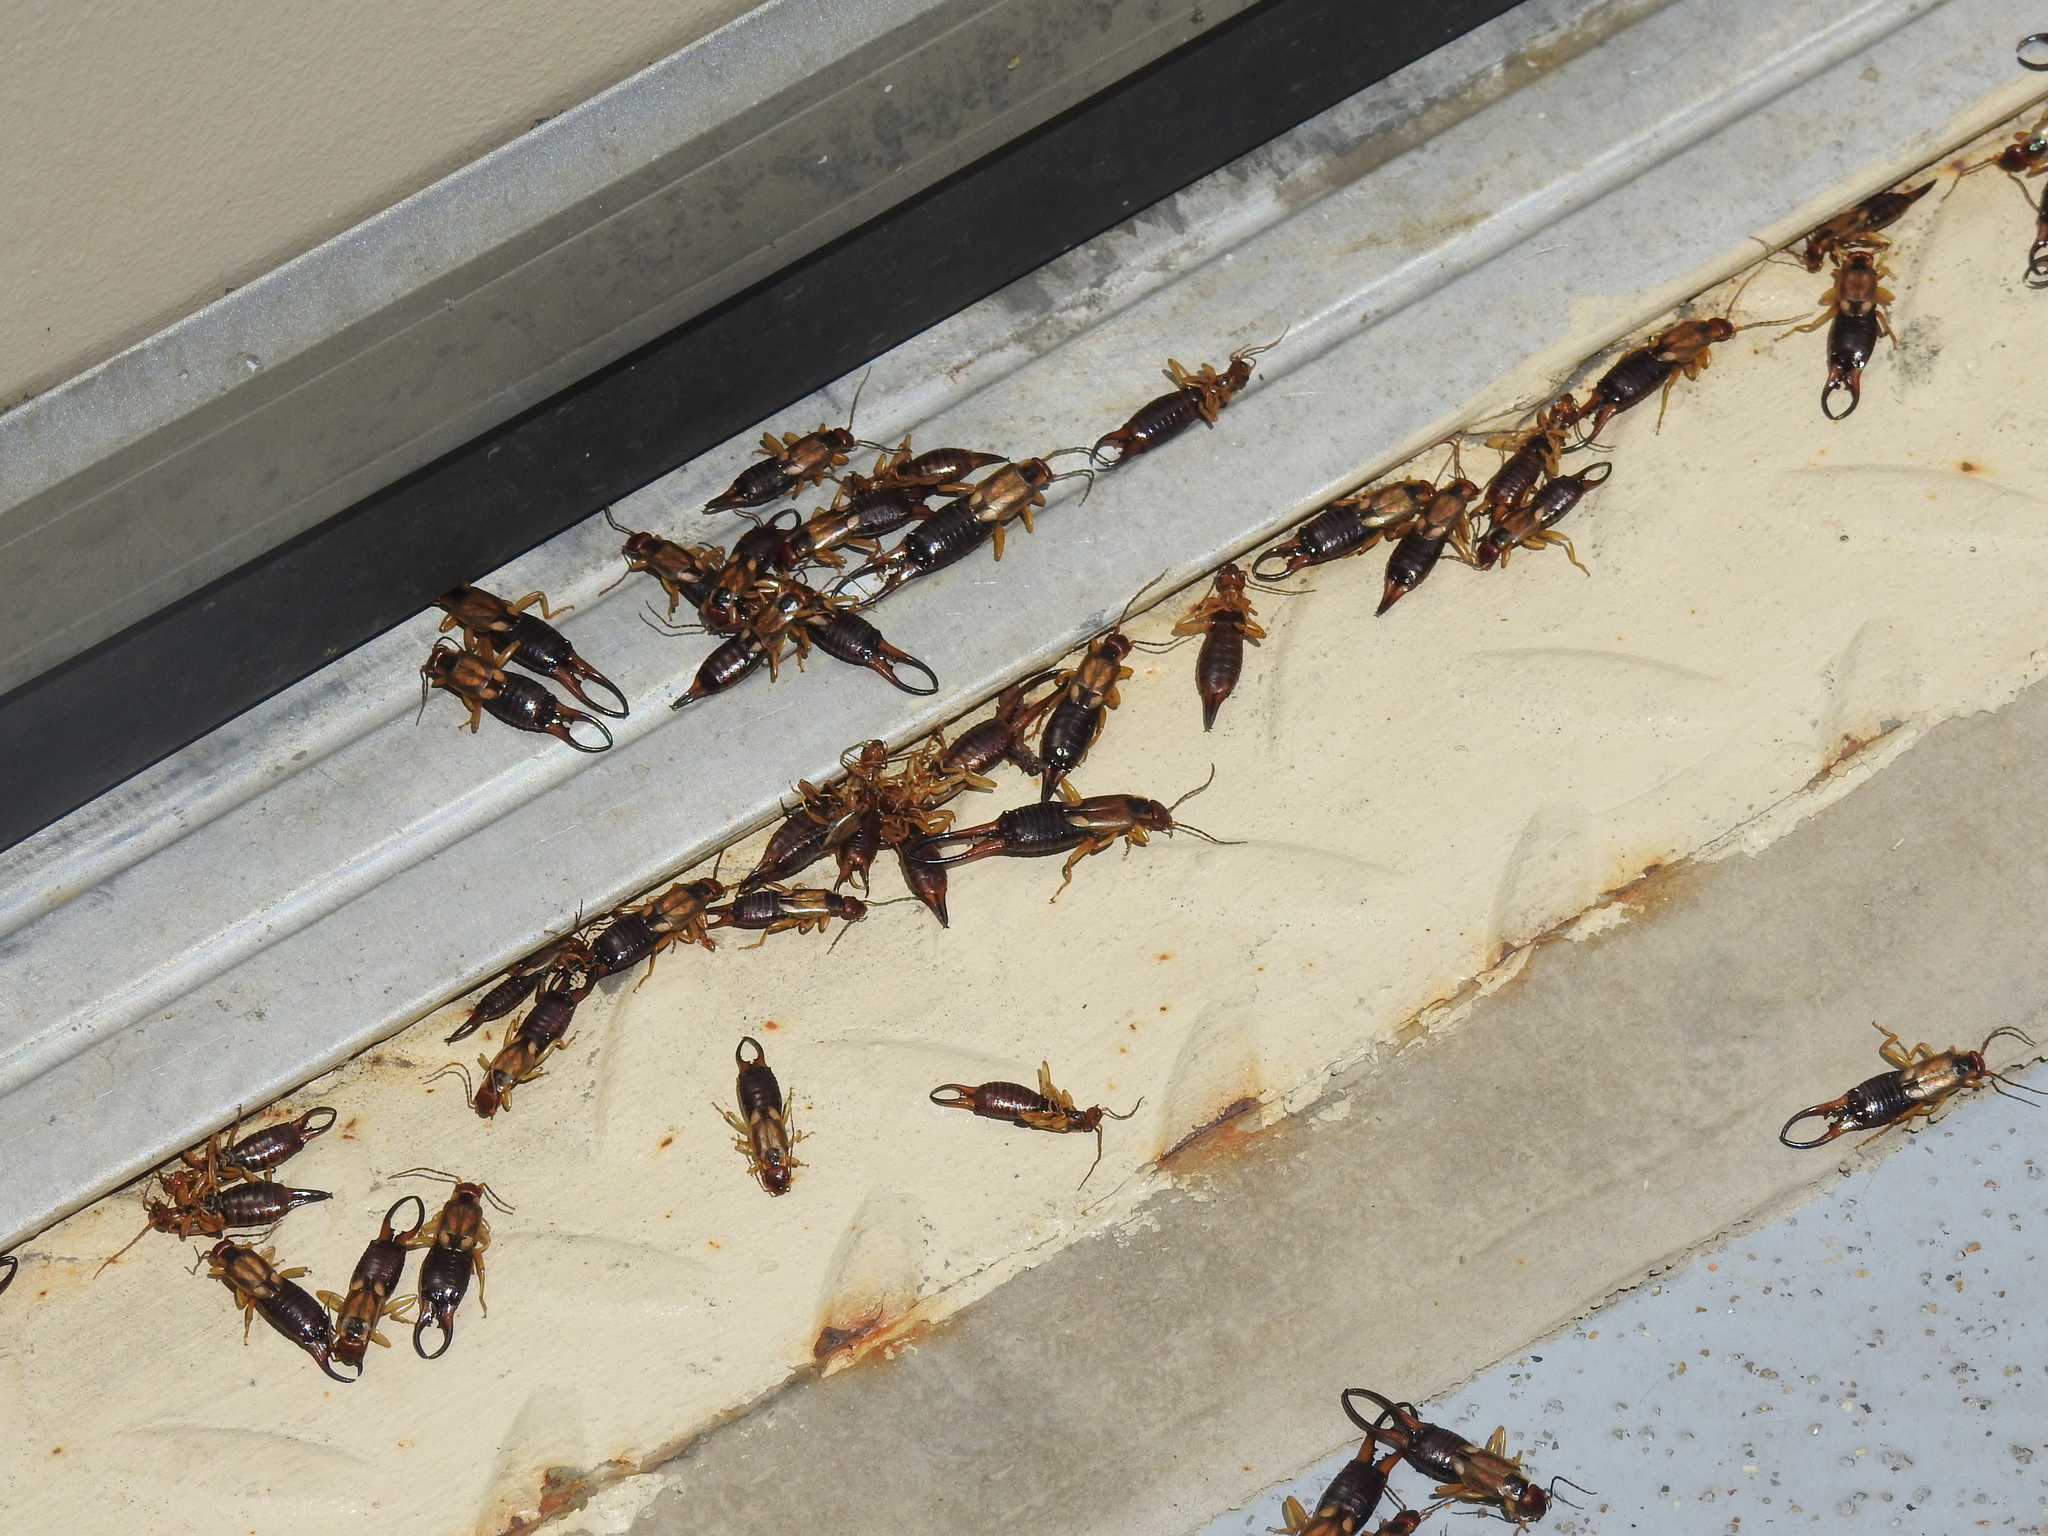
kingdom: Animalia
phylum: Arthropoda
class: Insecta
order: Dermaptera
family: Forficulidae
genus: Forficula
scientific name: Forficula
